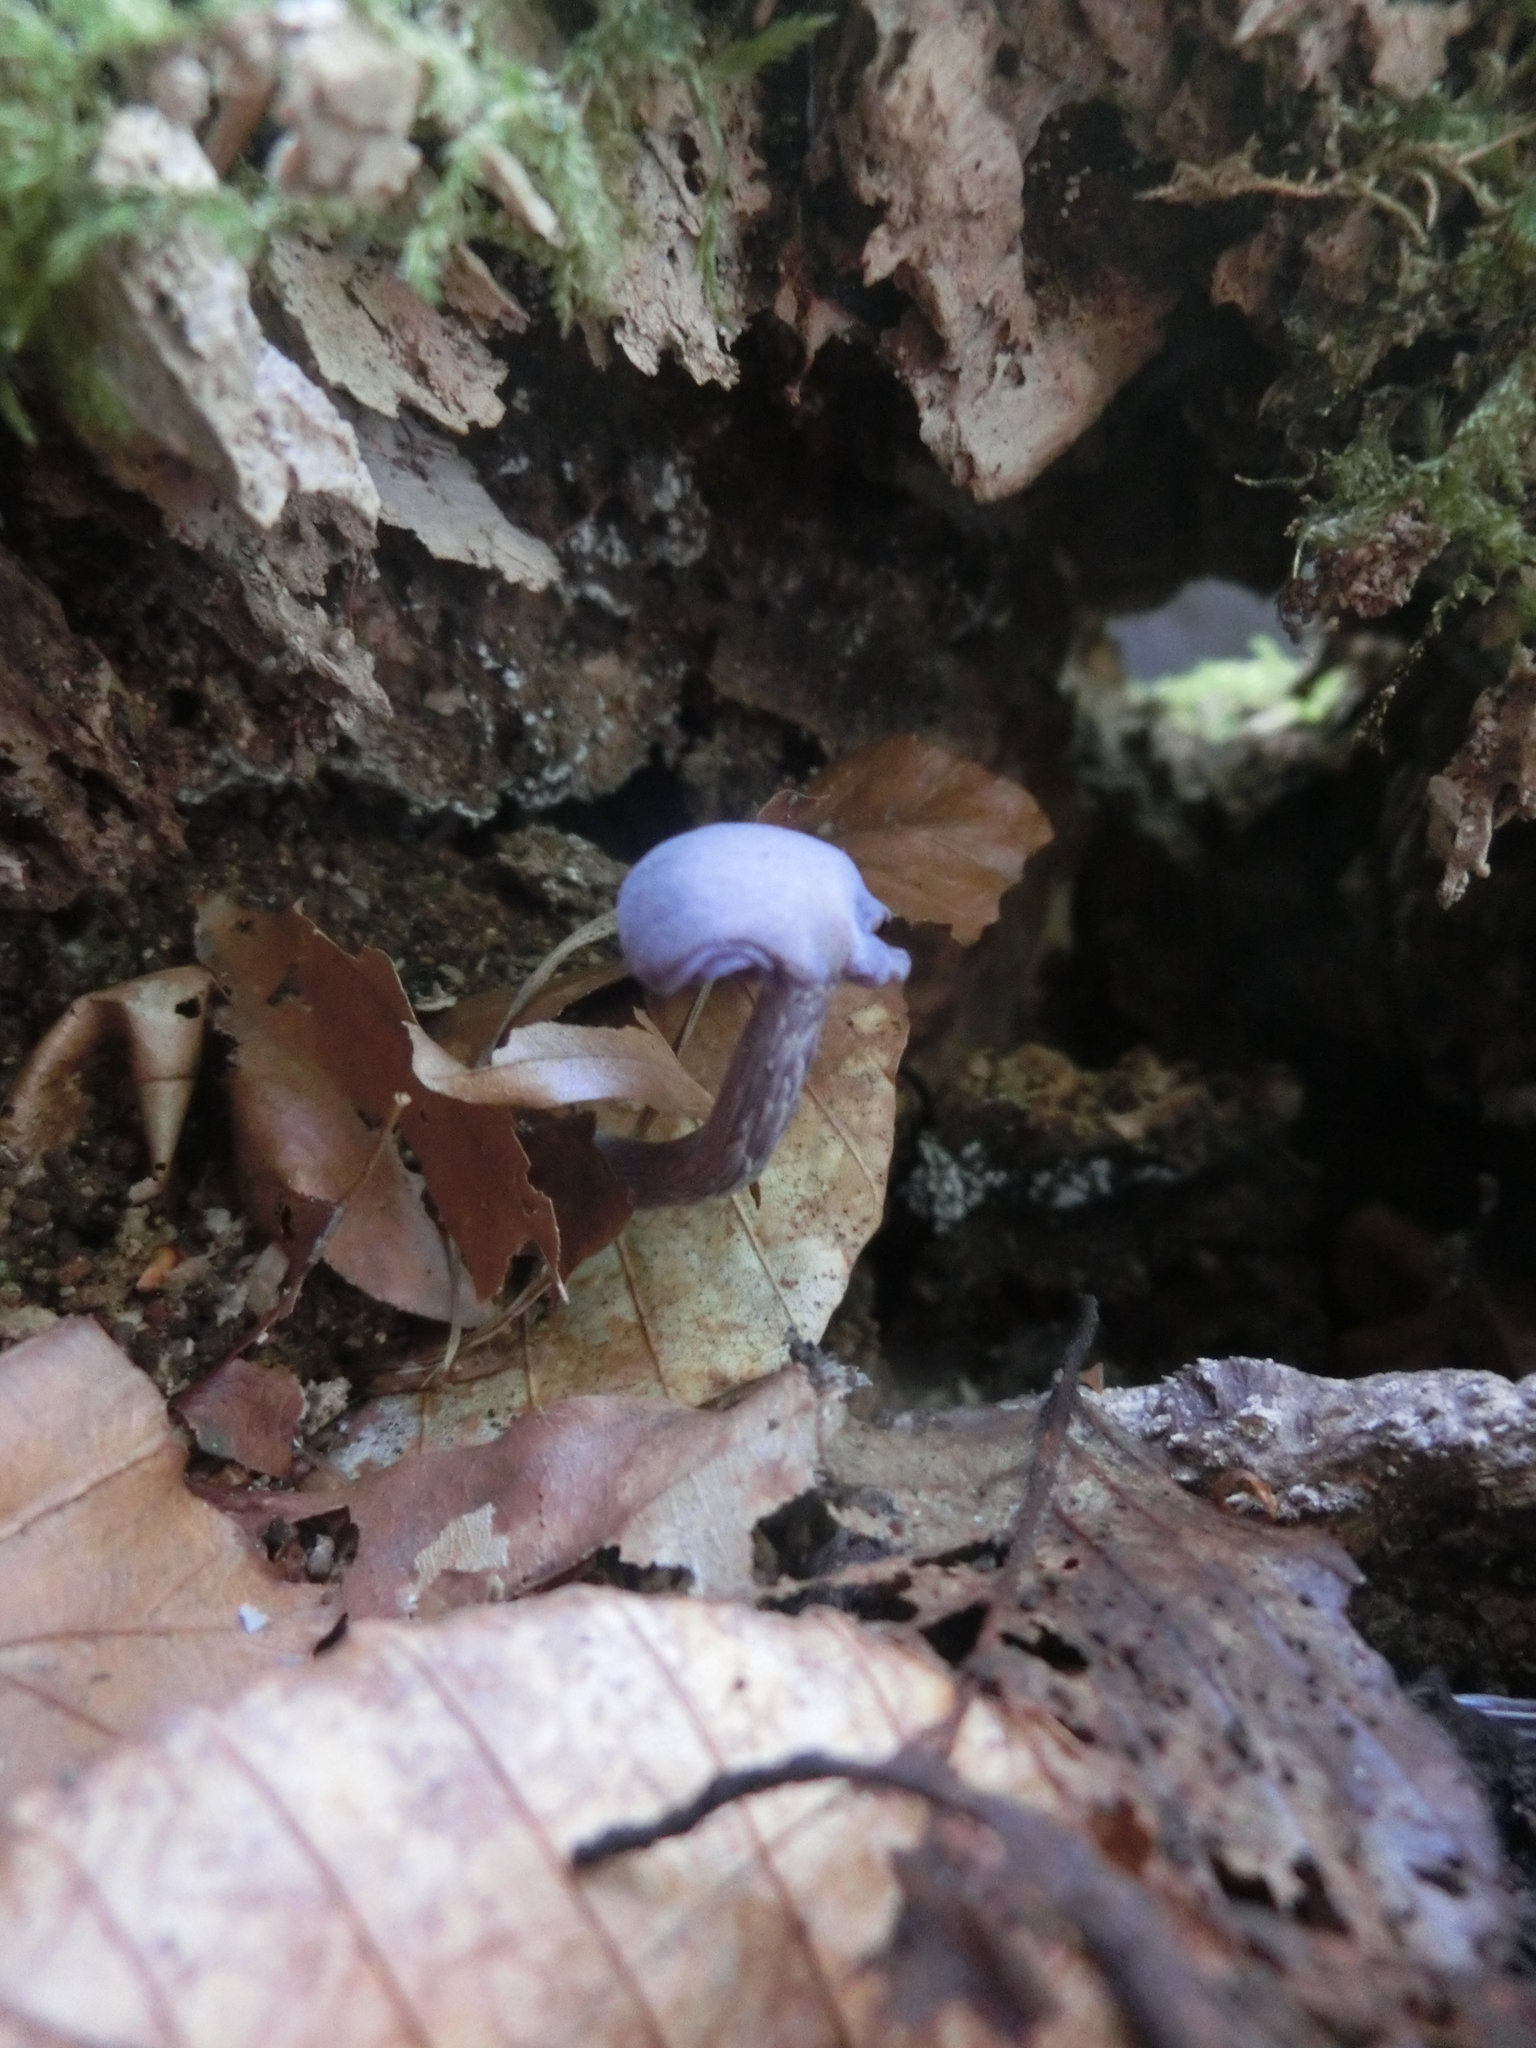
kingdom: Fungi
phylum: Basidiomycota
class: Agaricomycetes
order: Agaricales
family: Hydnangiaceae
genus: Laccaria
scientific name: Laccaria amethystina
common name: Amethyst deceiver
